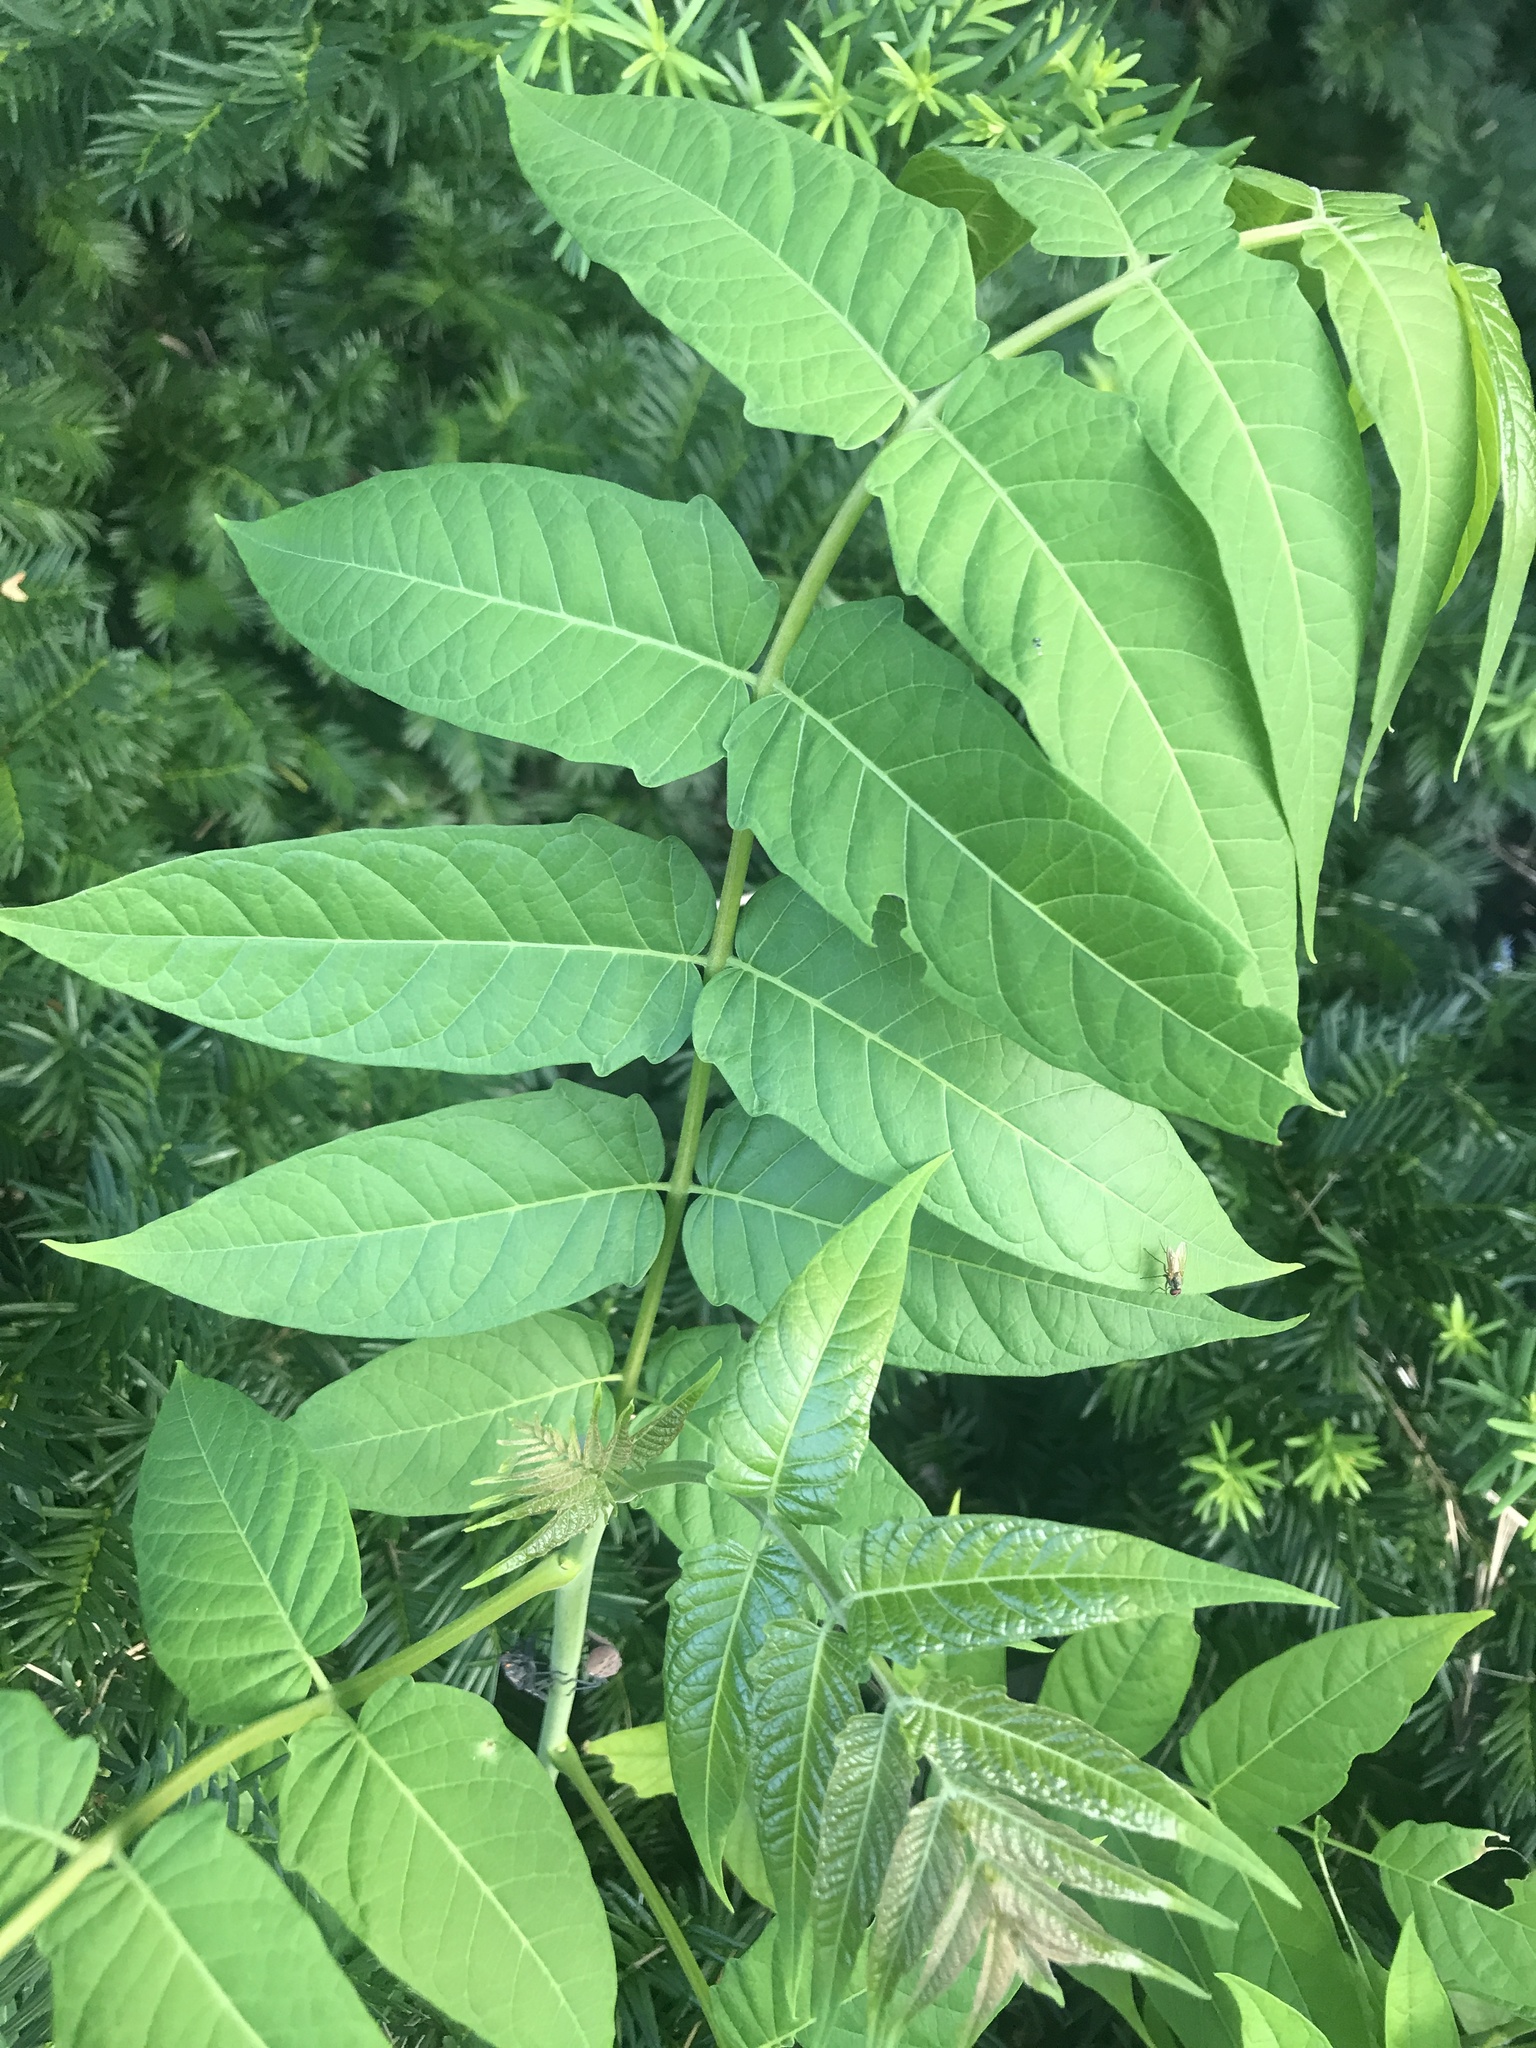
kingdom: Plantae
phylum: Tracheophyta
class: Magnoliopsida
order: Sapindales
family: Simaroubaceae
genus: Ailanthus
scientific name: Ailanthus altissima
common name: Tree-of-heaven
